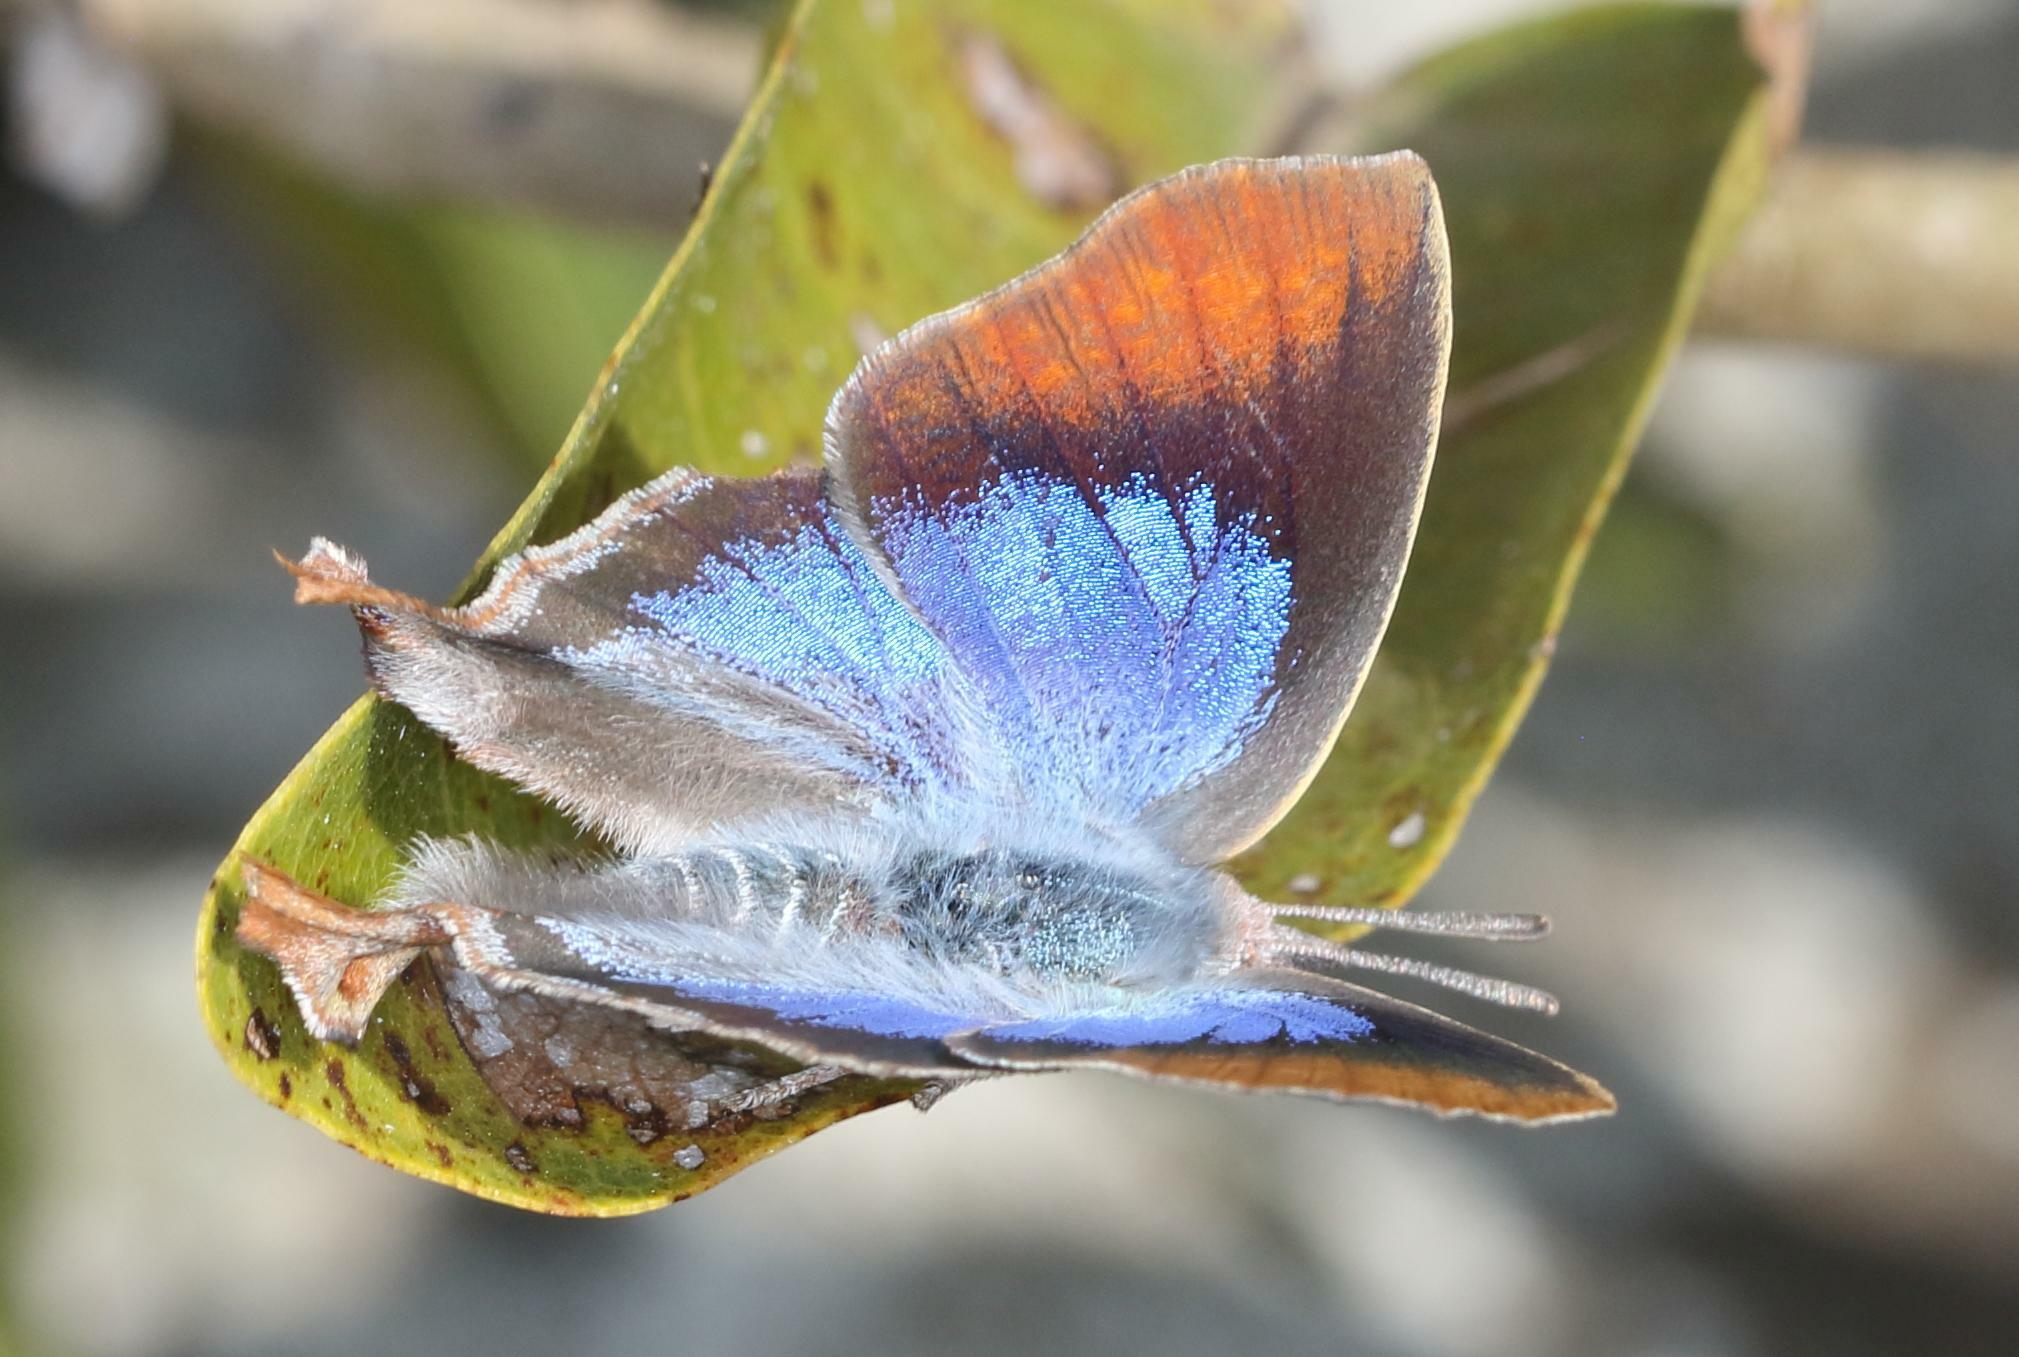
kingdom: Animalia
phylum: Arthropoda
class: Insecta
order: Lepidoptera
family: Lycaenidae
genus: Myrina
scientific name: Myrina silenus
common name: Amber fig-tree blue
